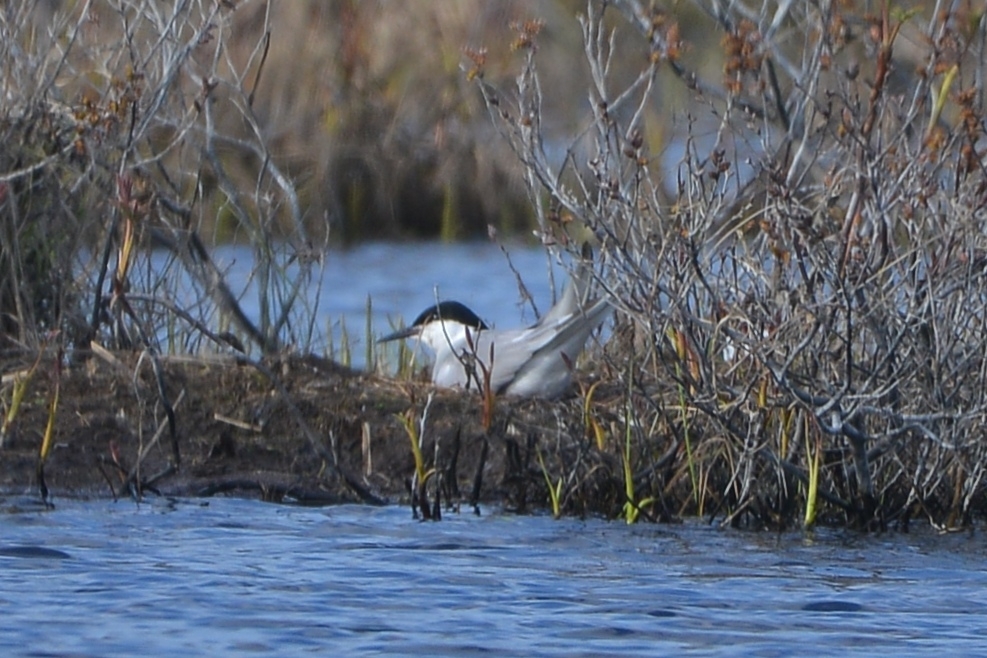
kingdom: Animalia
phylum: Chordata
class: Aves
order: Charadriiformes
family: Laridae
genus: Sterna
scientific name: Sterna hirundo
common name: Common tern
